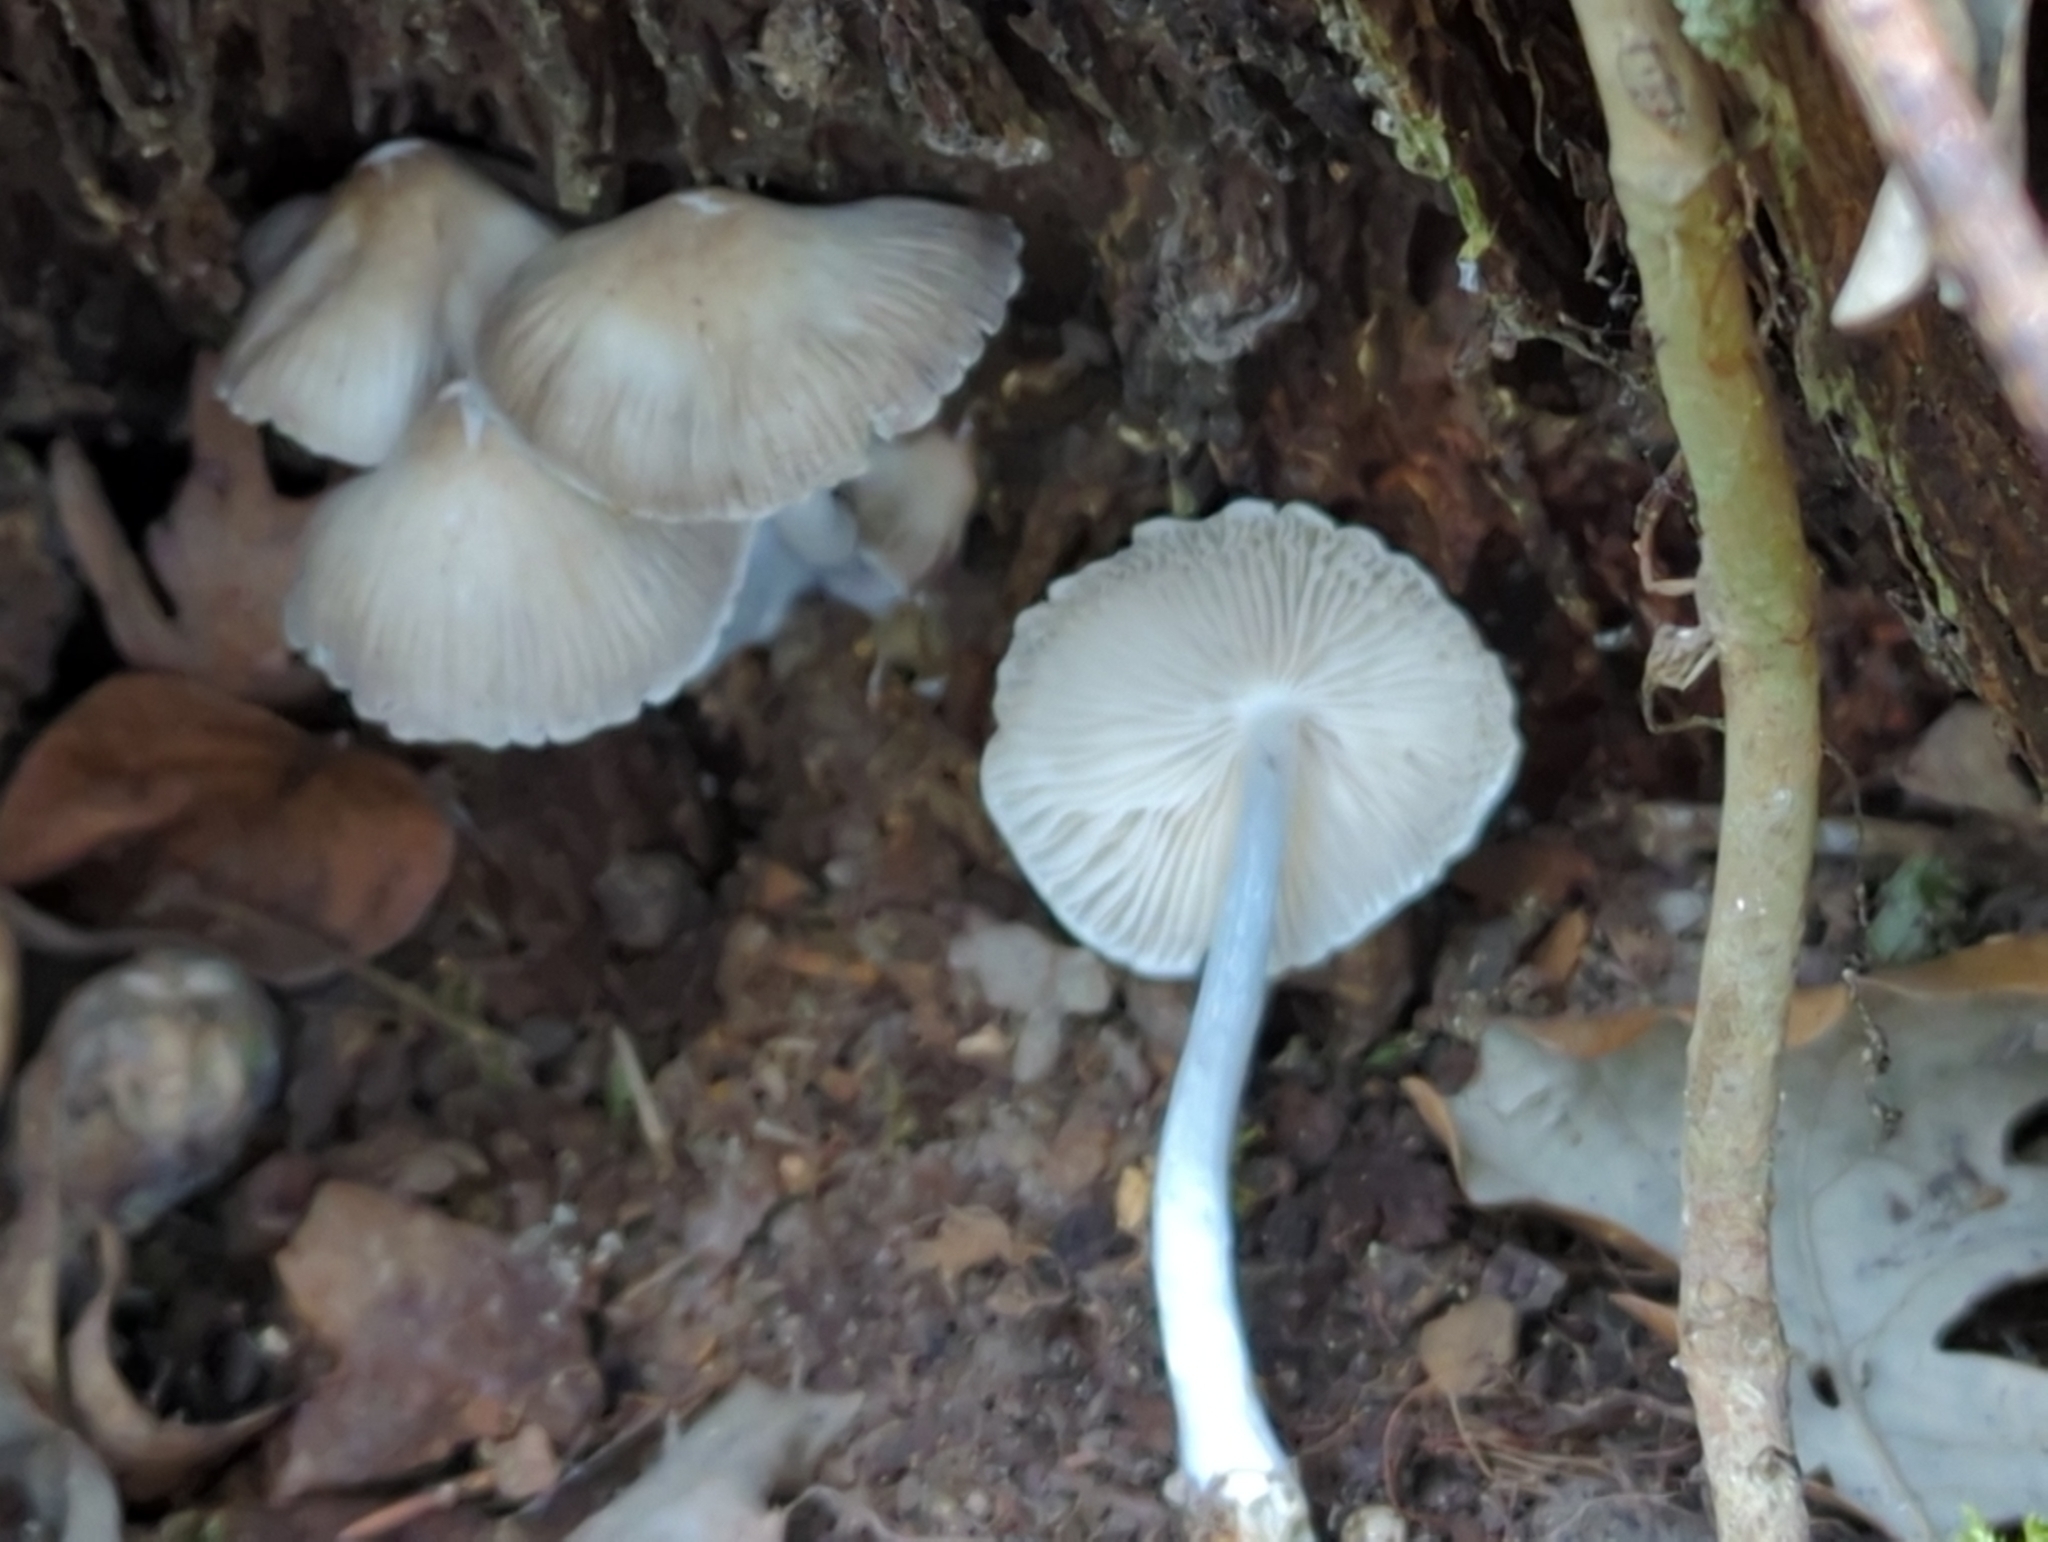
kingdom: Fungi
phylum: Basidiomycota
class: Agaricomycetes
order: Agaricales
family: Mycenaceae
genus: Mycena
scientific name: Mycena inclinata
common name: Clustered bonnet
